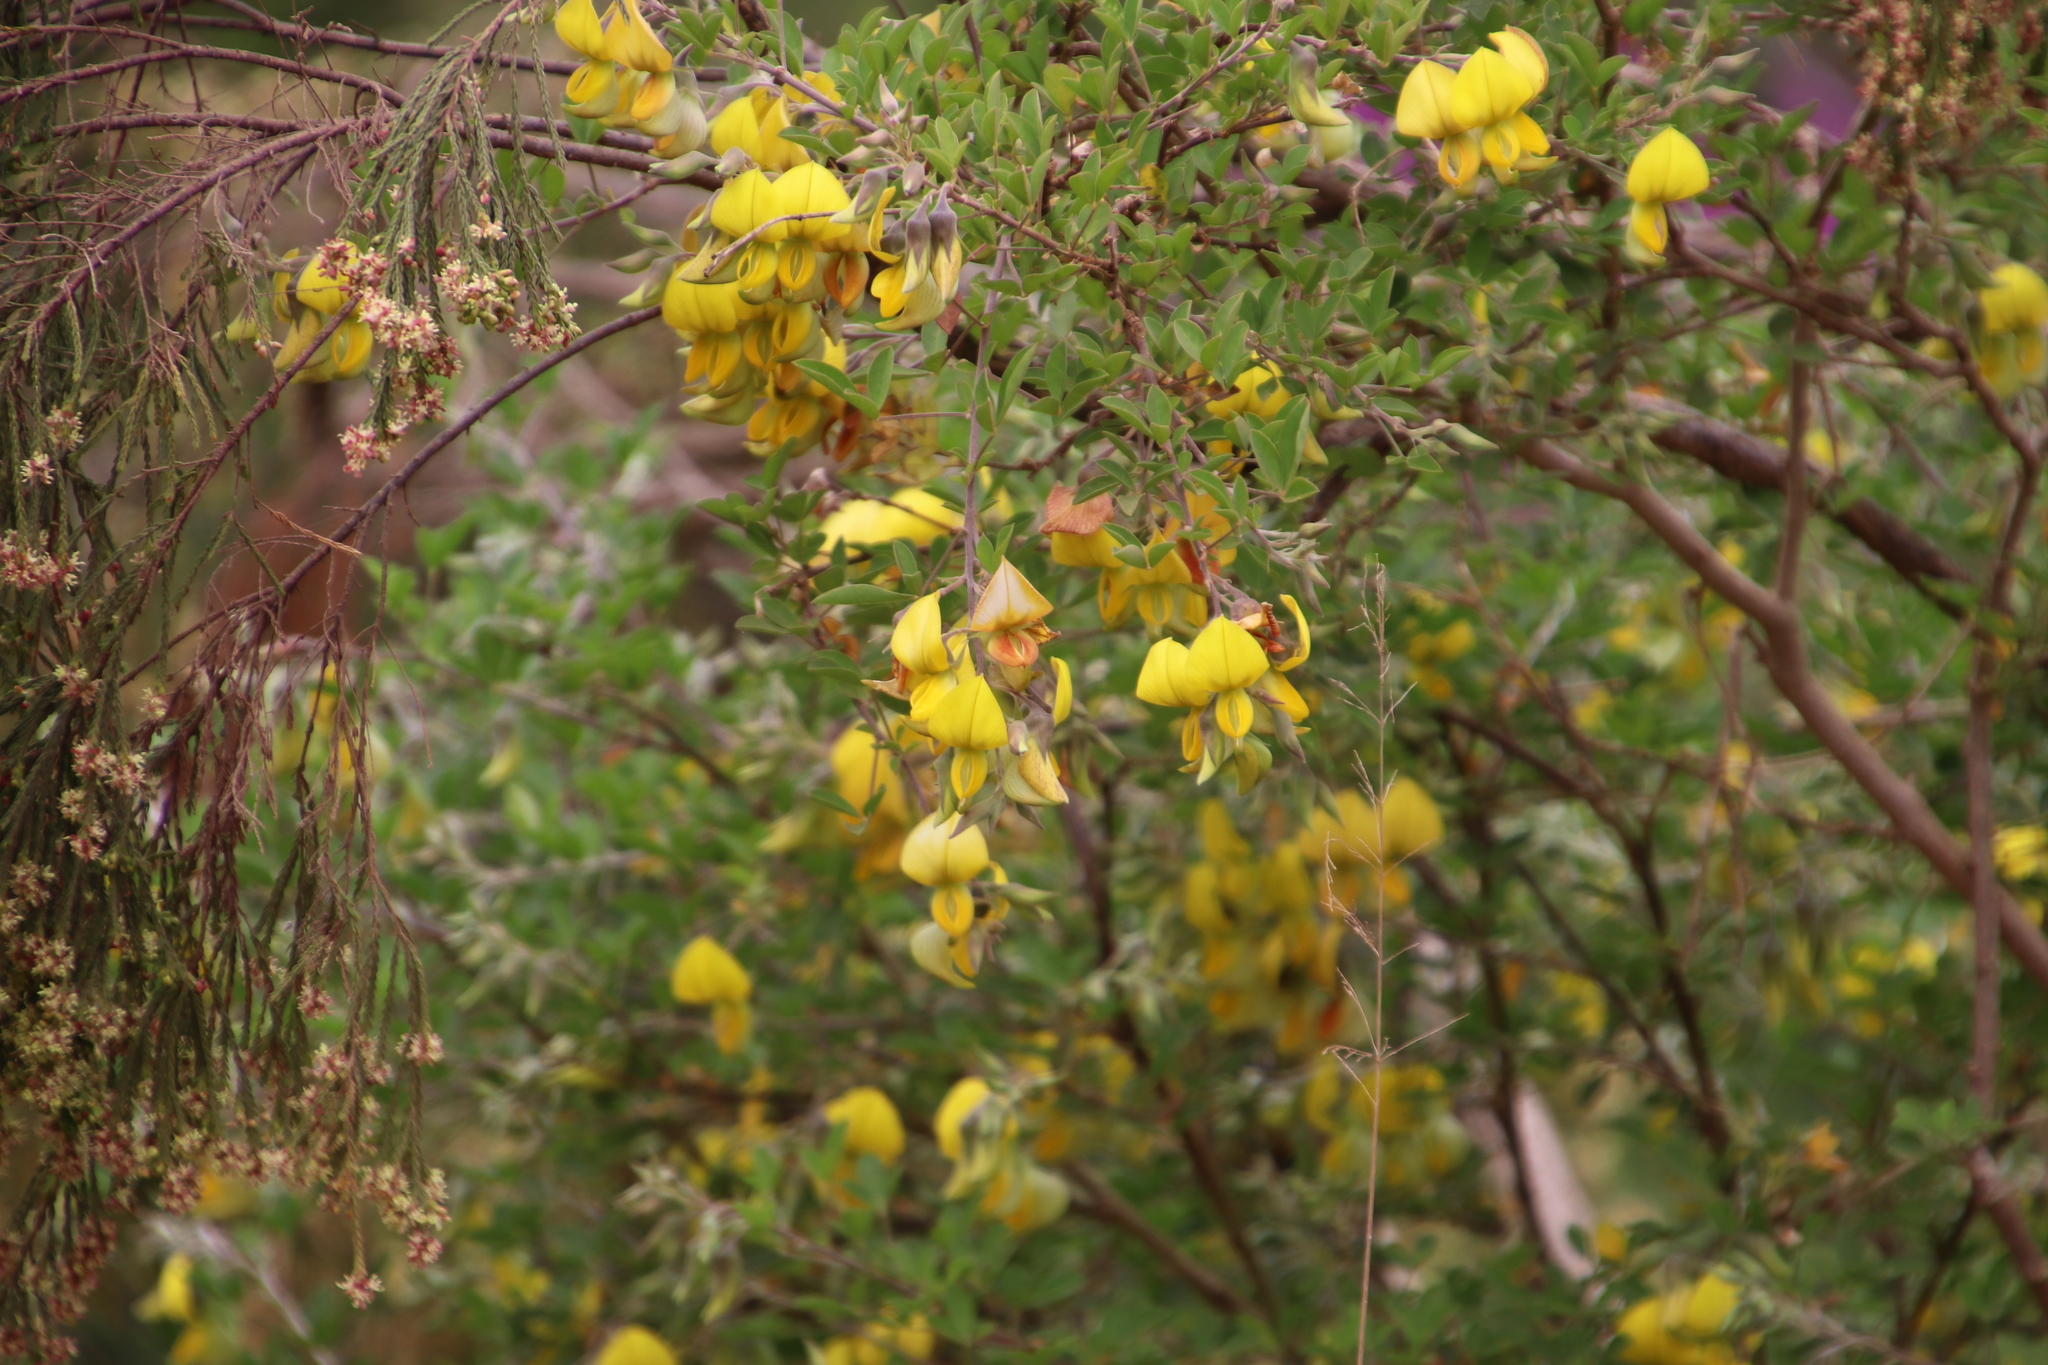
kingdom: Plantae
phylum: Tracheophyta
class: Magnoliopsida
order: Fabales
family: Fabaceae
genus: Crotalaria
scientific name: Crotalaria capensis
